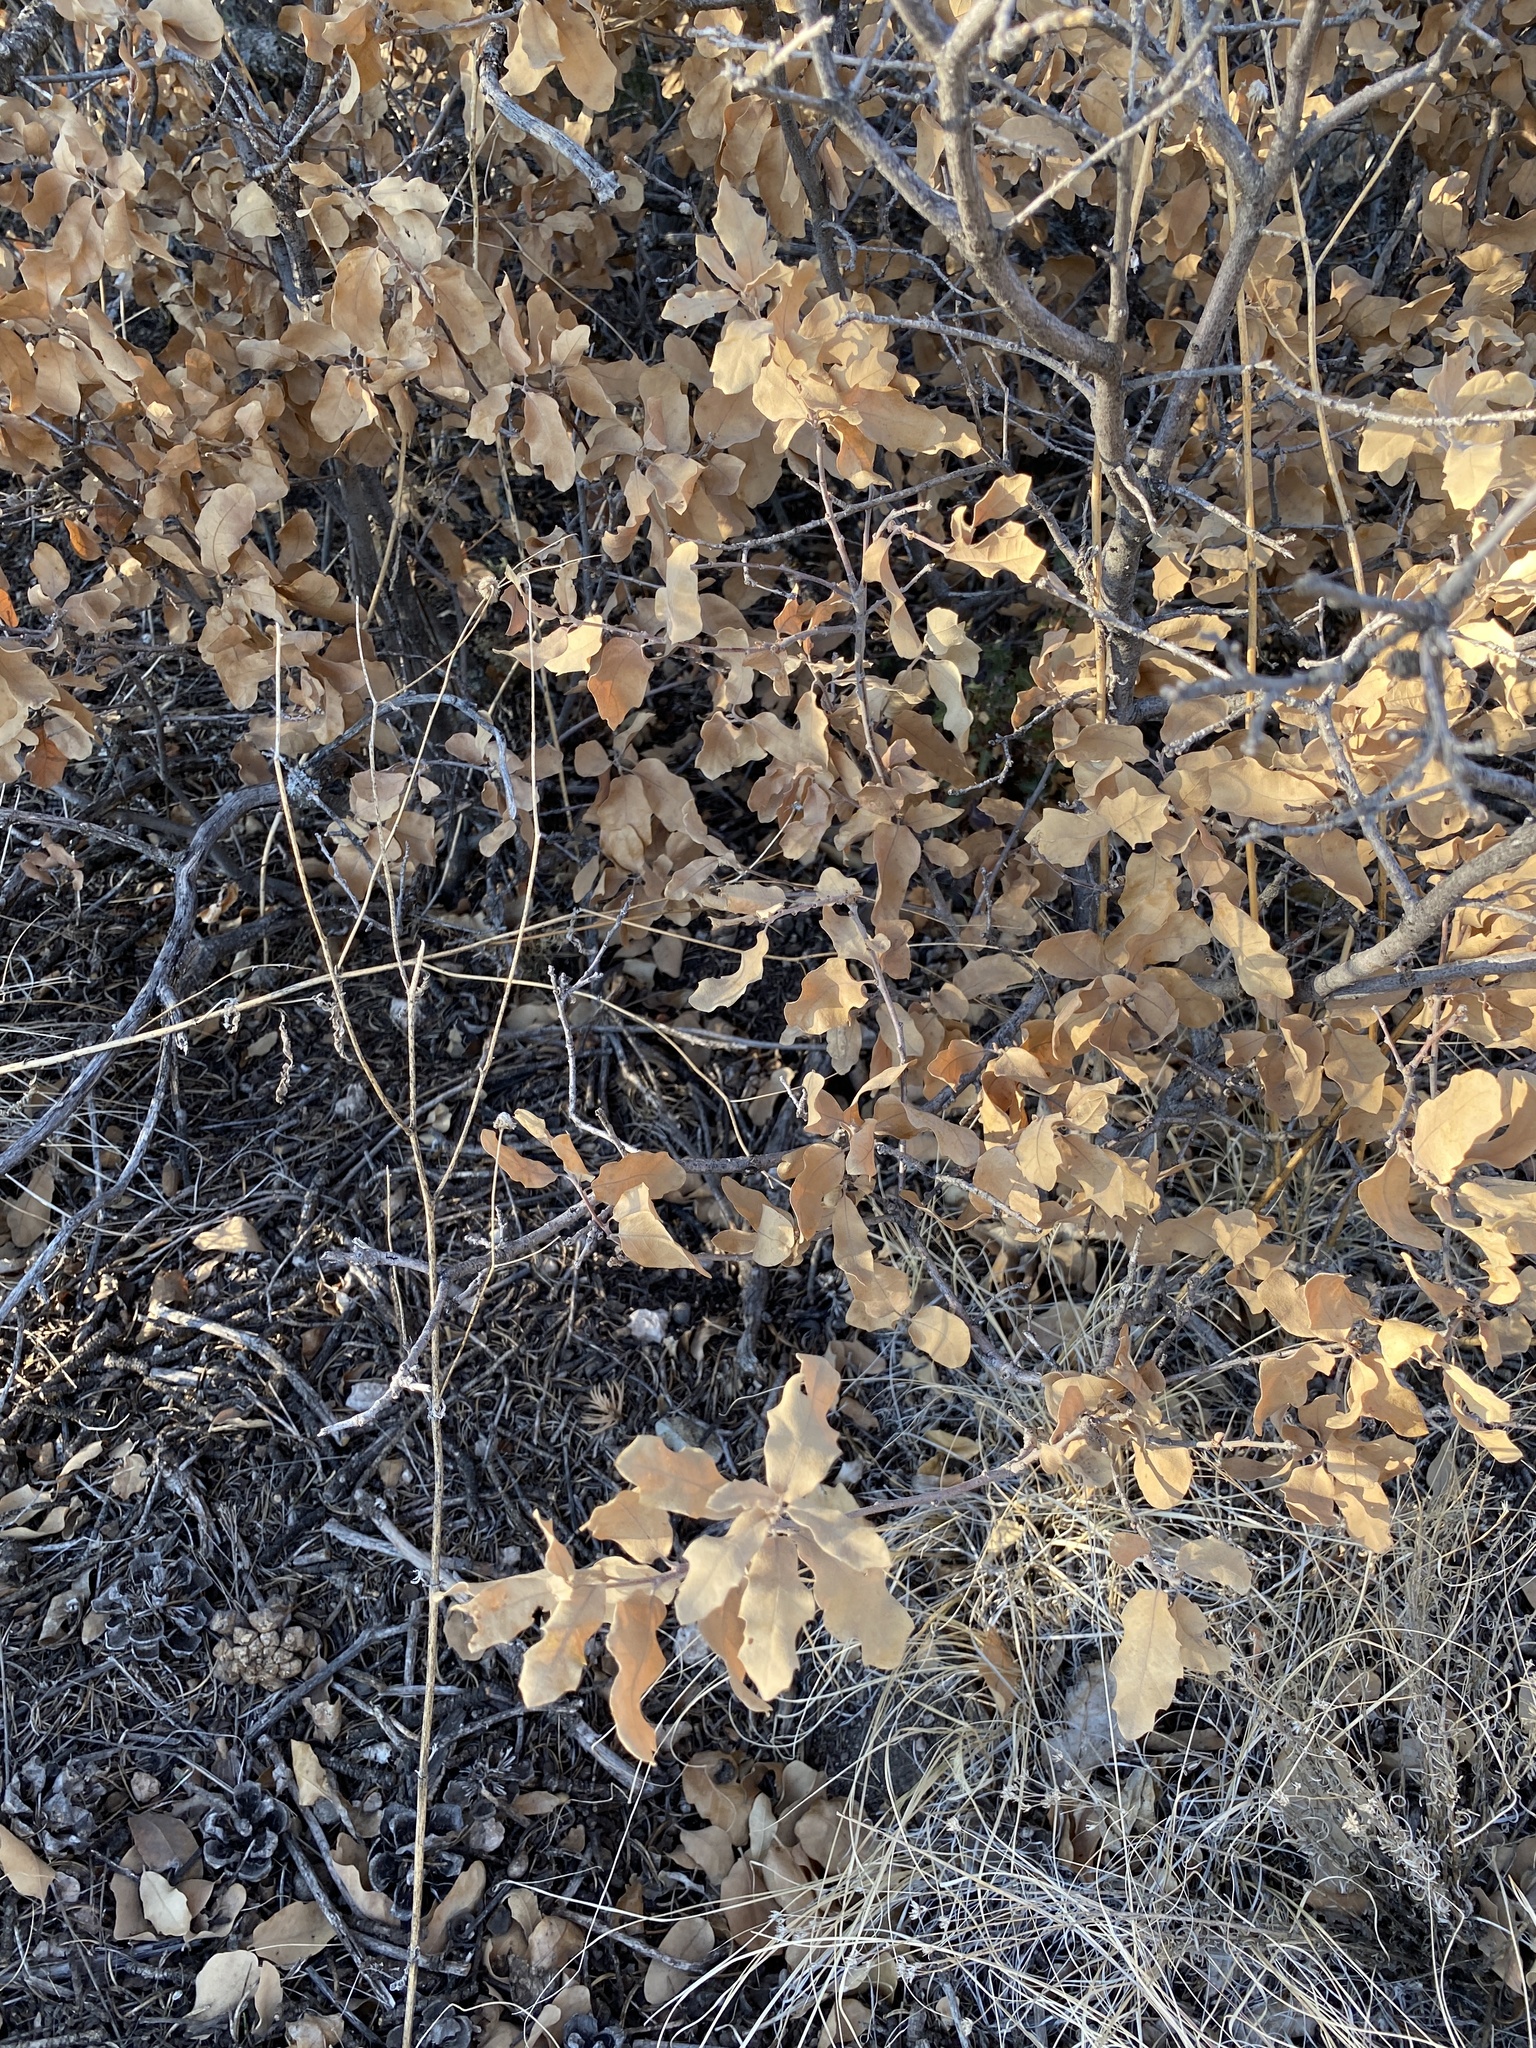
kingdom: Plantae
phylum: Tracheophyta
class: Magnoliopsida
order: Fagales
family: Fagaceae
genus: Quercus
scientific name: Quercus undulata
